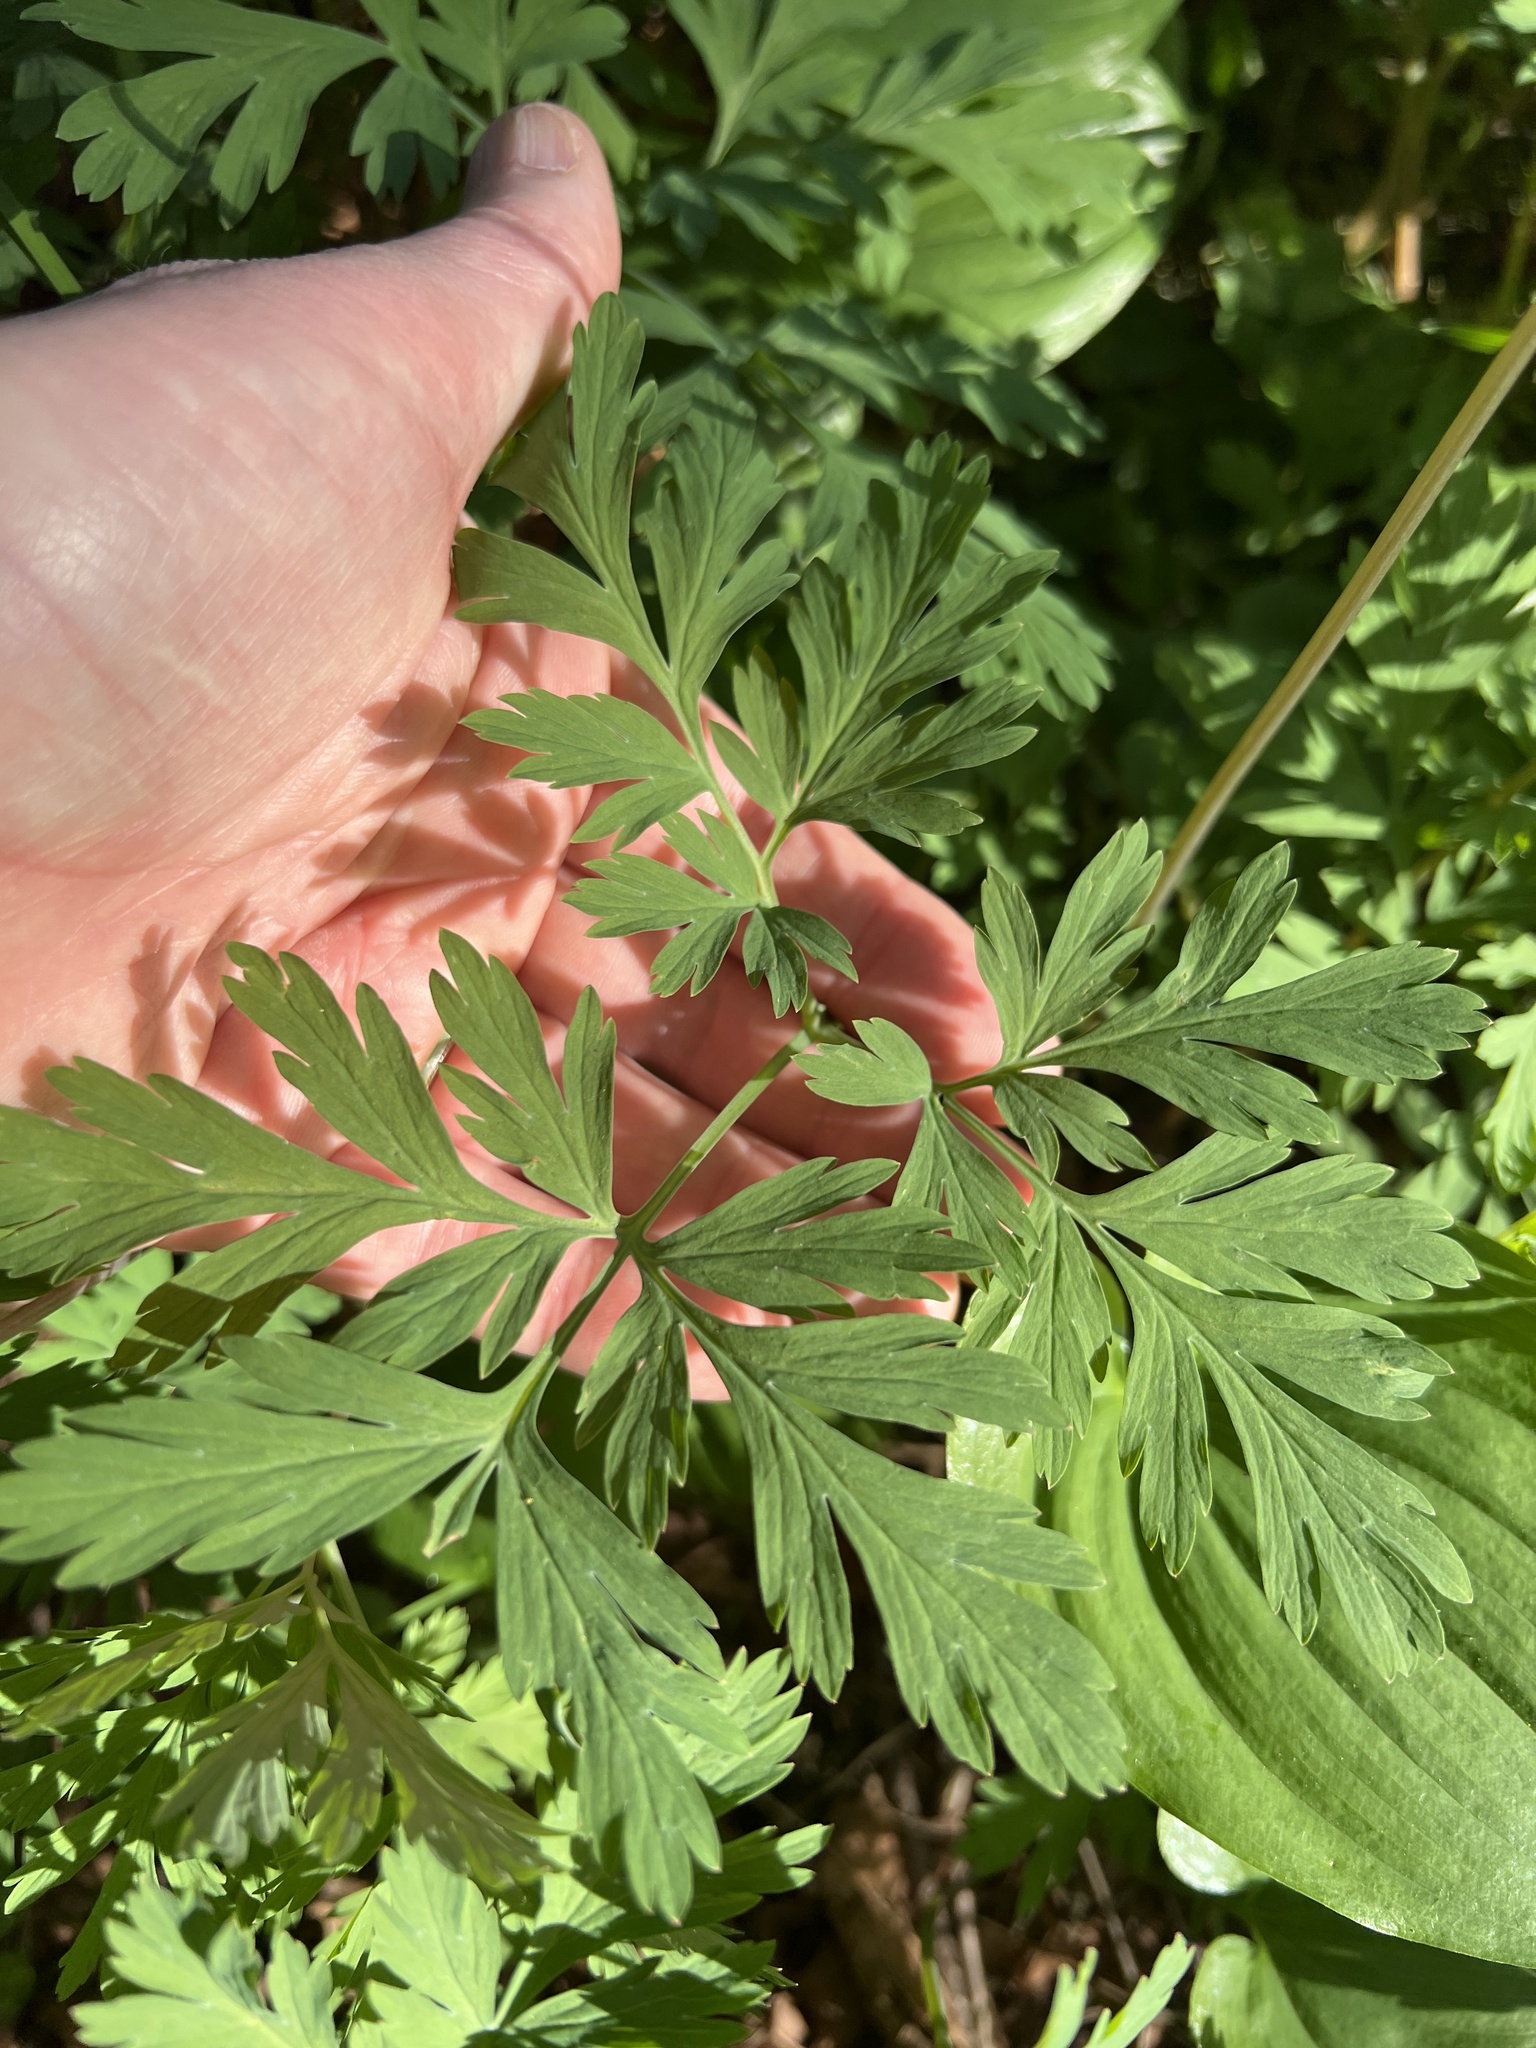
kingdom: Plantae
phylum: Tracheophyta
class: Magnoliopsida
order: Ranunculales
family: Papaveraceae
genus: Dicentra
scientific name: Dicentra formosa
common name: Bleeding-heart
